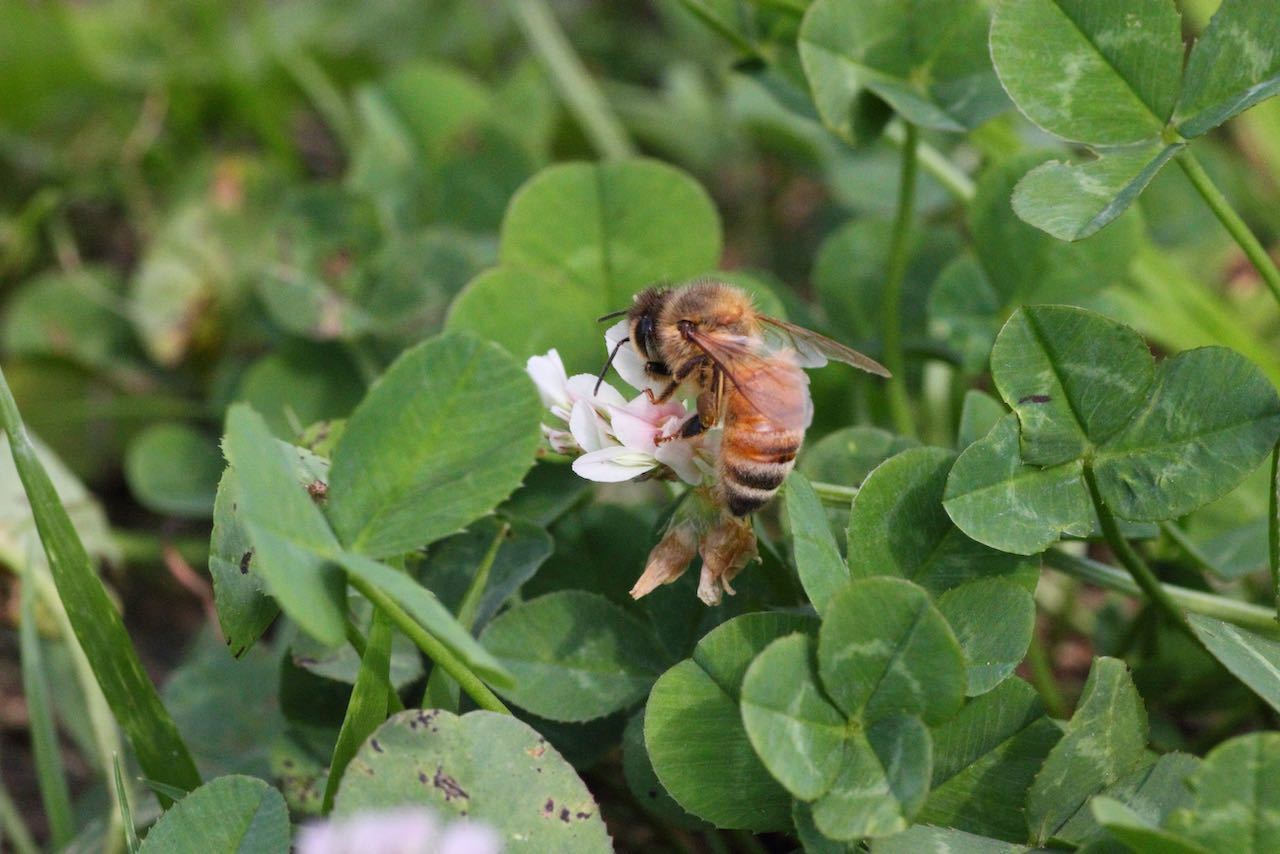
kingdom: Animalia
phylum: Arthropoda
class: Insecta
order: Hymenoptera
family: Apidae
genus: Apis
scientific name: Apis mellifera
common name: Honey bee
